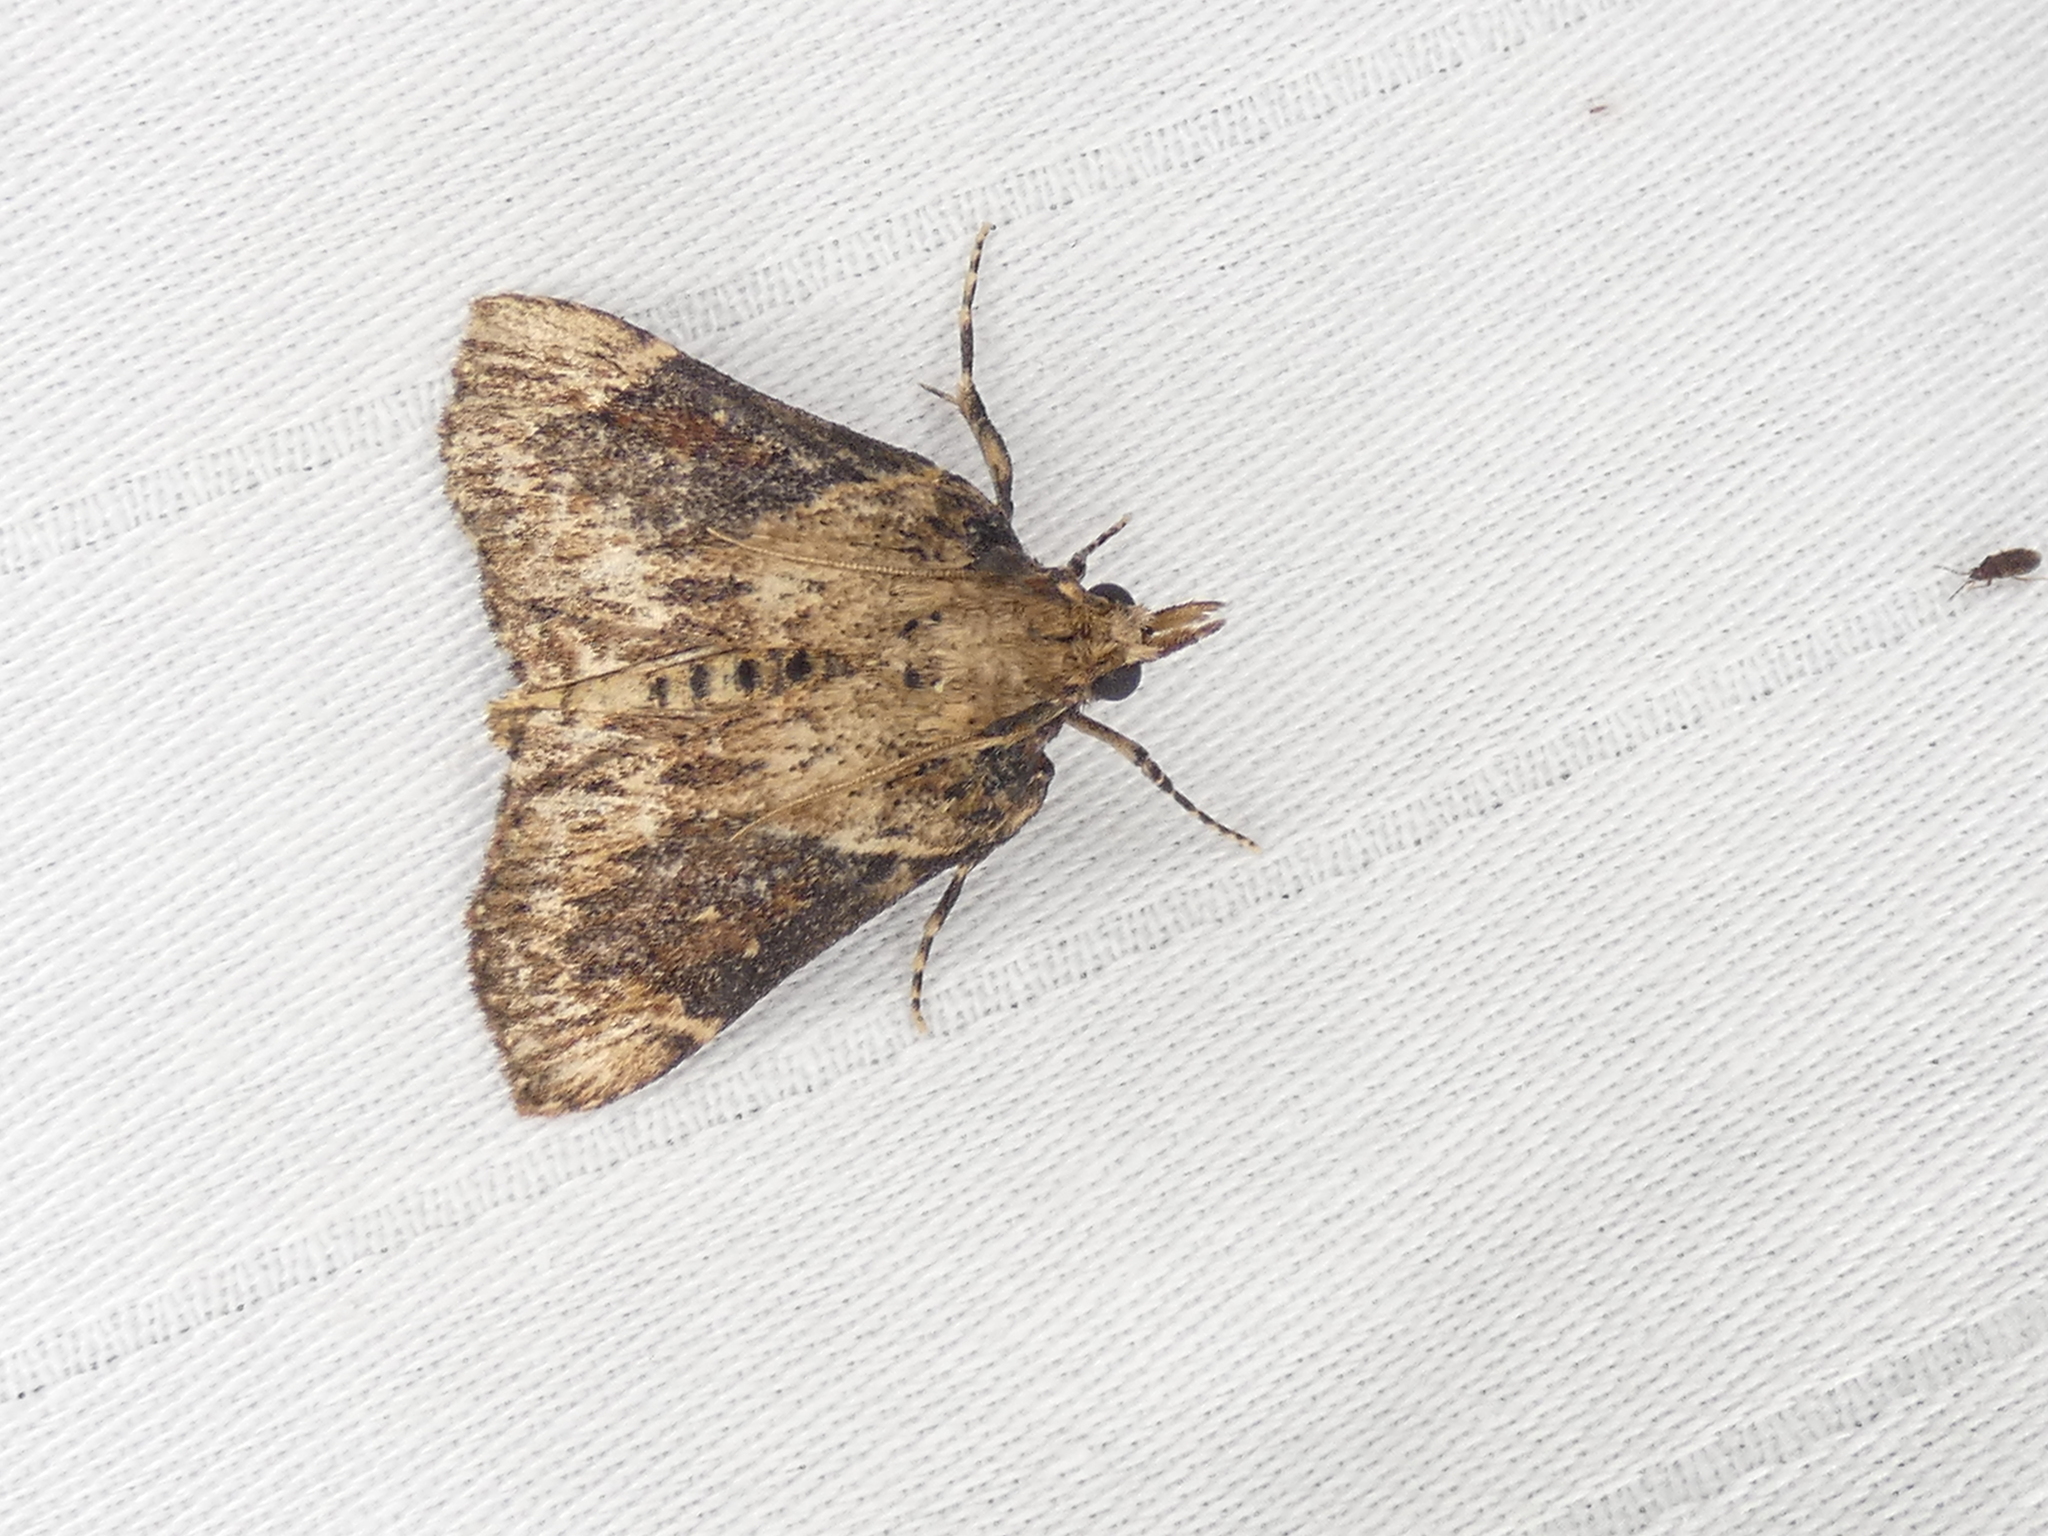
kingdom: Animalia
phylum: Arthropoda
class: Insecta
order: Lepidoptera
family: Pyralidae
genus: Omphalocera
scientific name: Omphalocera cariosa
